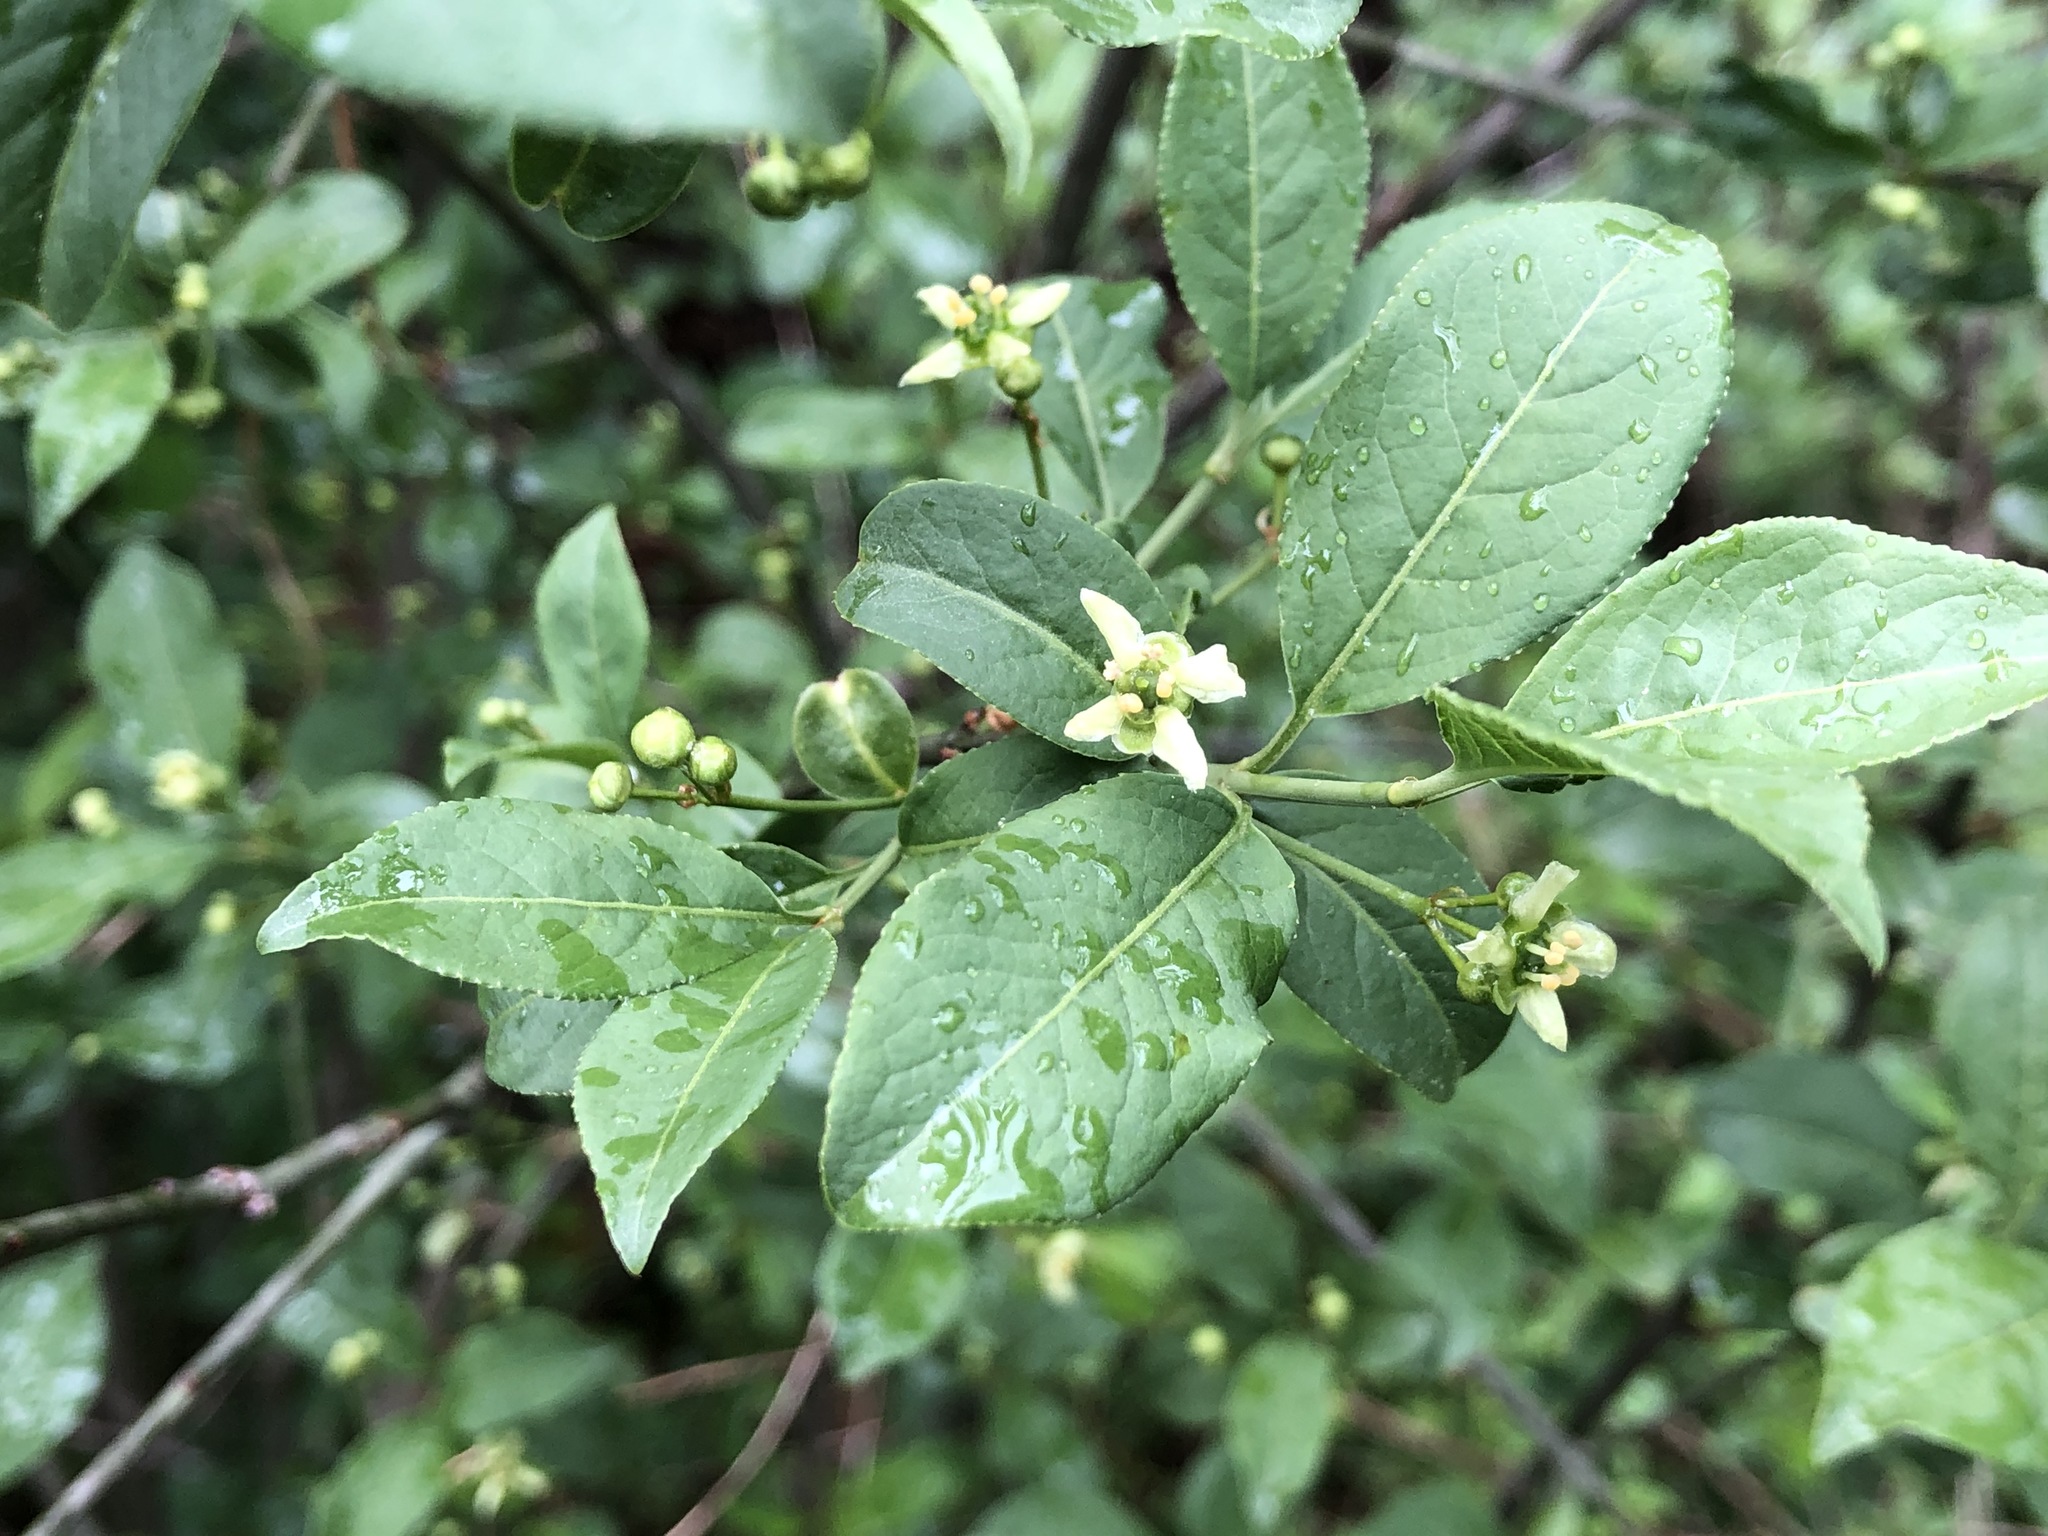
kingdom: Plantae
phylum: Tracheophyta
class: Magnoliopsida
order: Celastrales
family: Celastraceae
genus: Euonymus
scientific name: Euonymus europaeus
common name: Spindle
